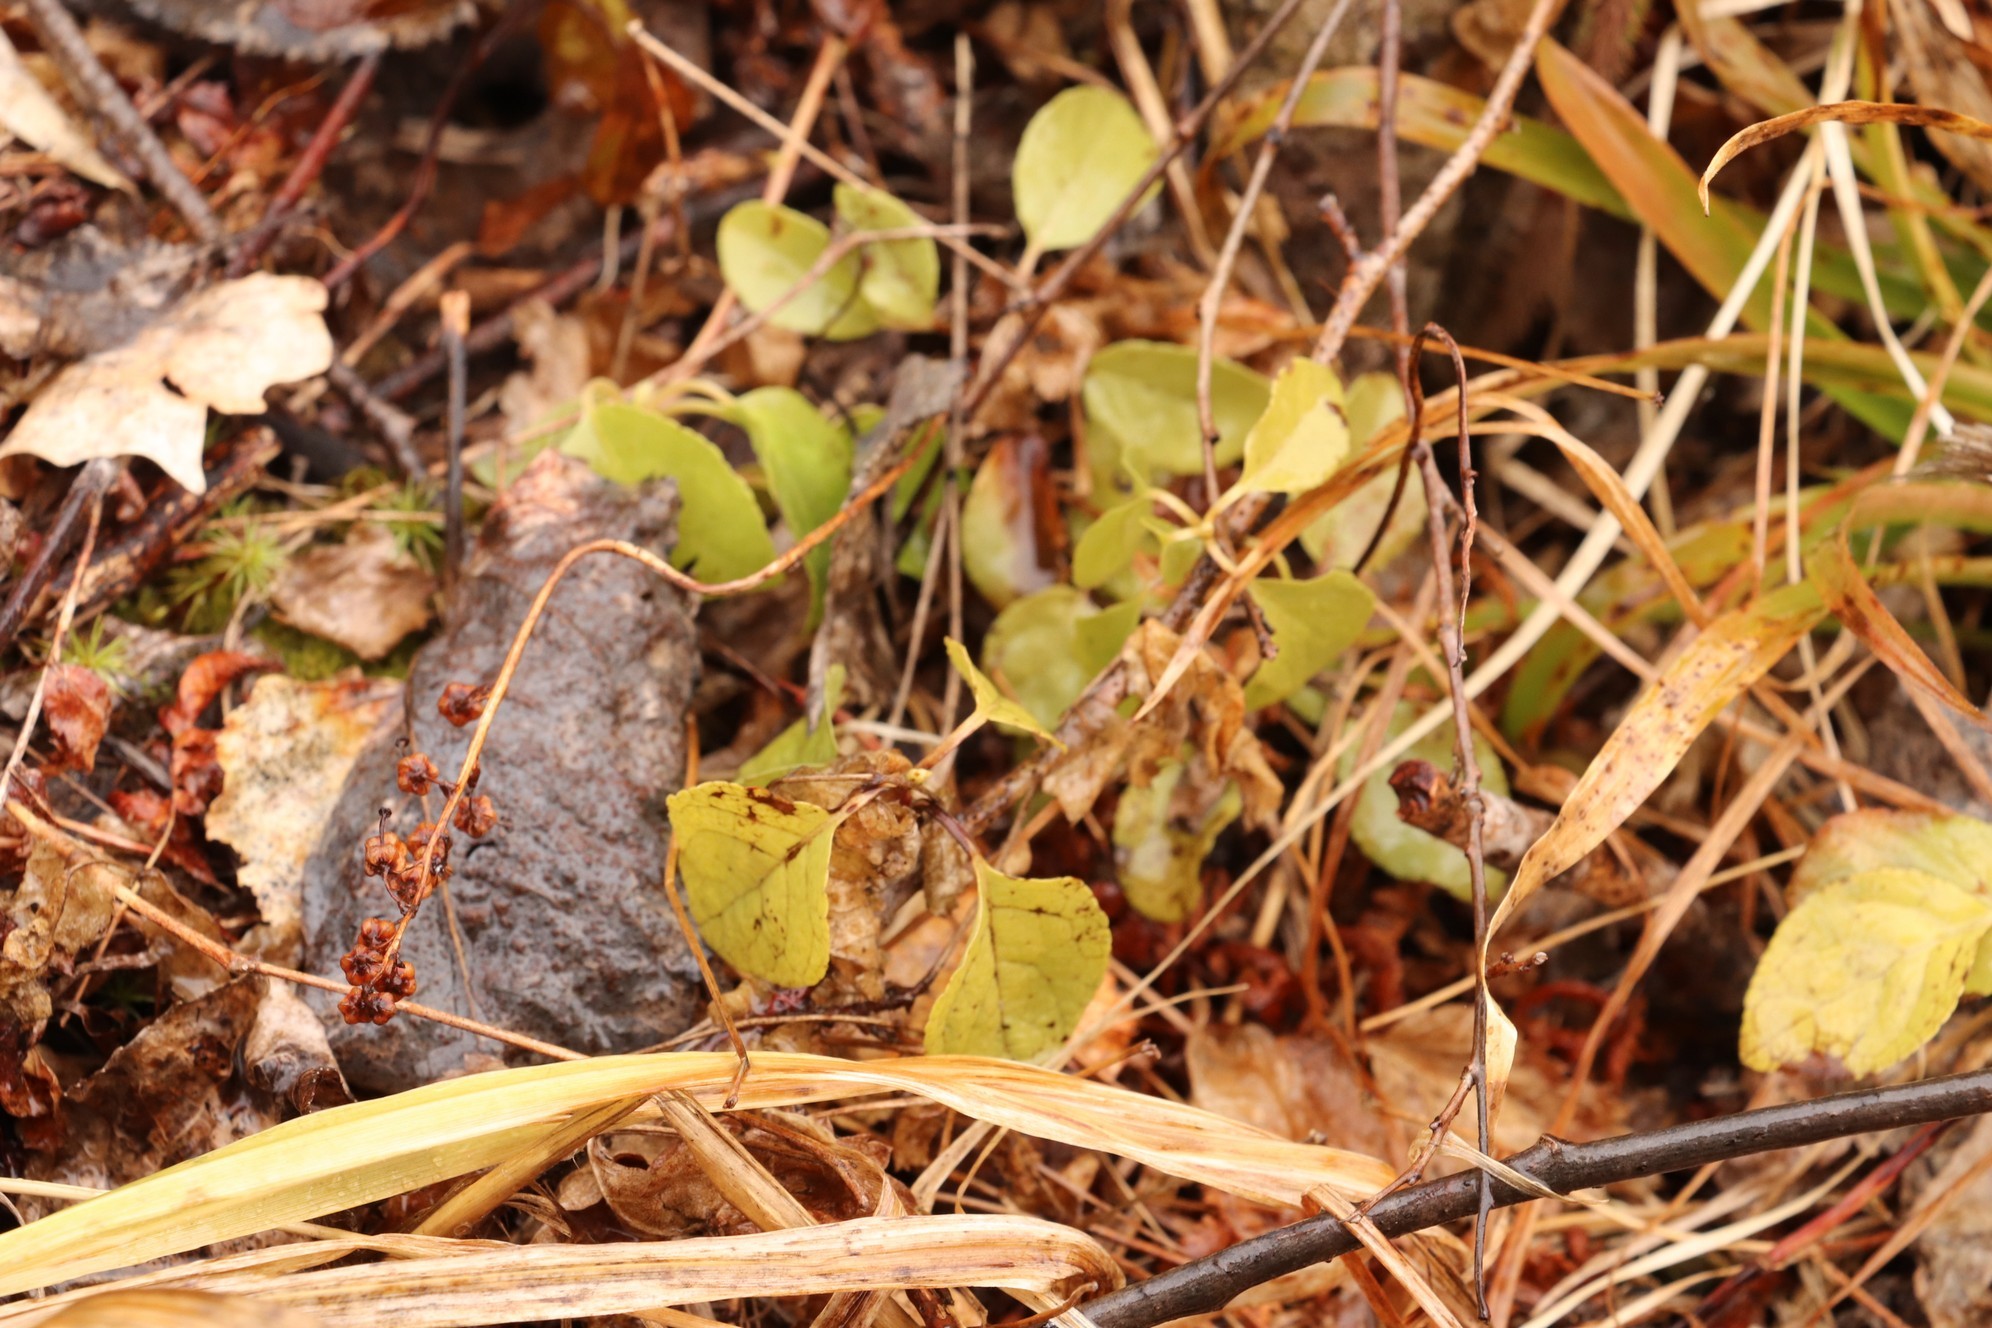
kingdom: Plantae
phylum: Tracheophyta
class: Magnoliopsida
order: Ericales
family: Ericaceae
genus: Orthilia
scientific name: Orthilia secunda
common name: One-sided orthilia
